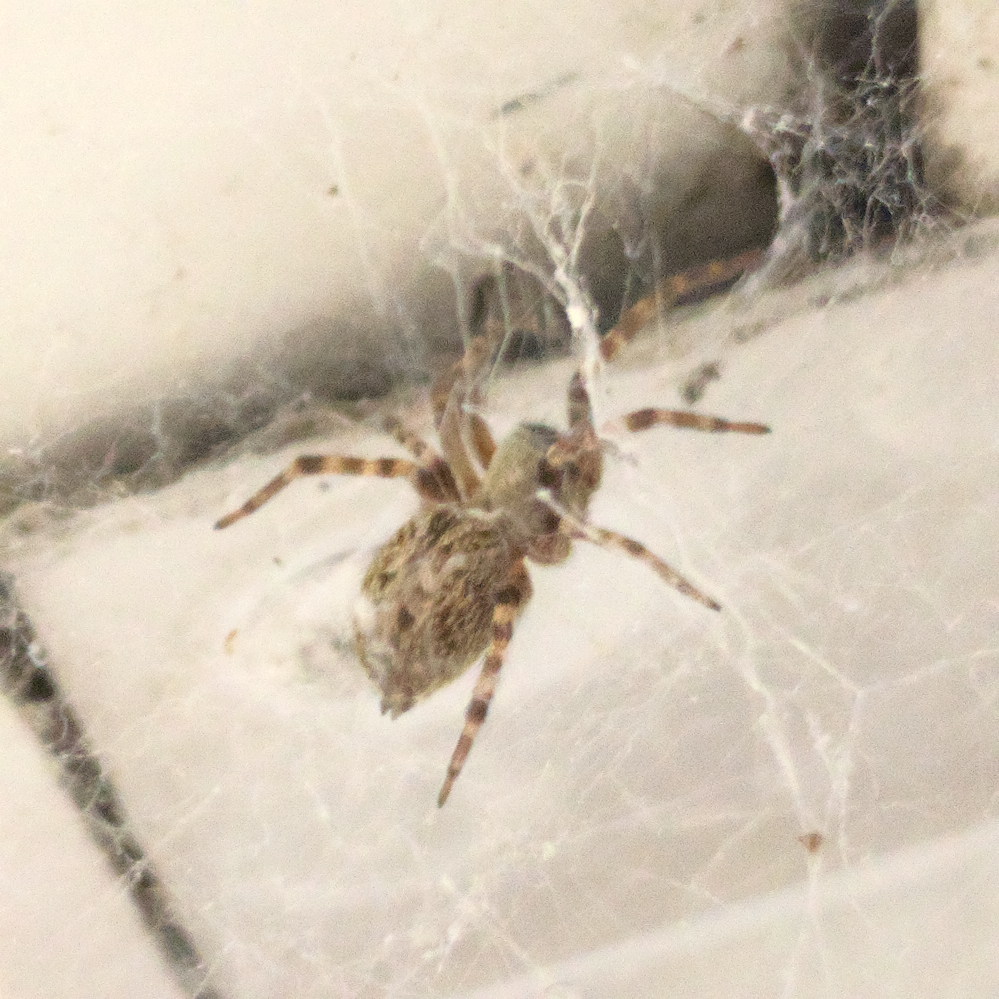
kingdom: Animalia
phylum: Arthropoda
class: Arachnida
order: Araneae
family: Desidae
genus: Badumna
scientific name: Badumna longinqua
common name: Gray house spider
